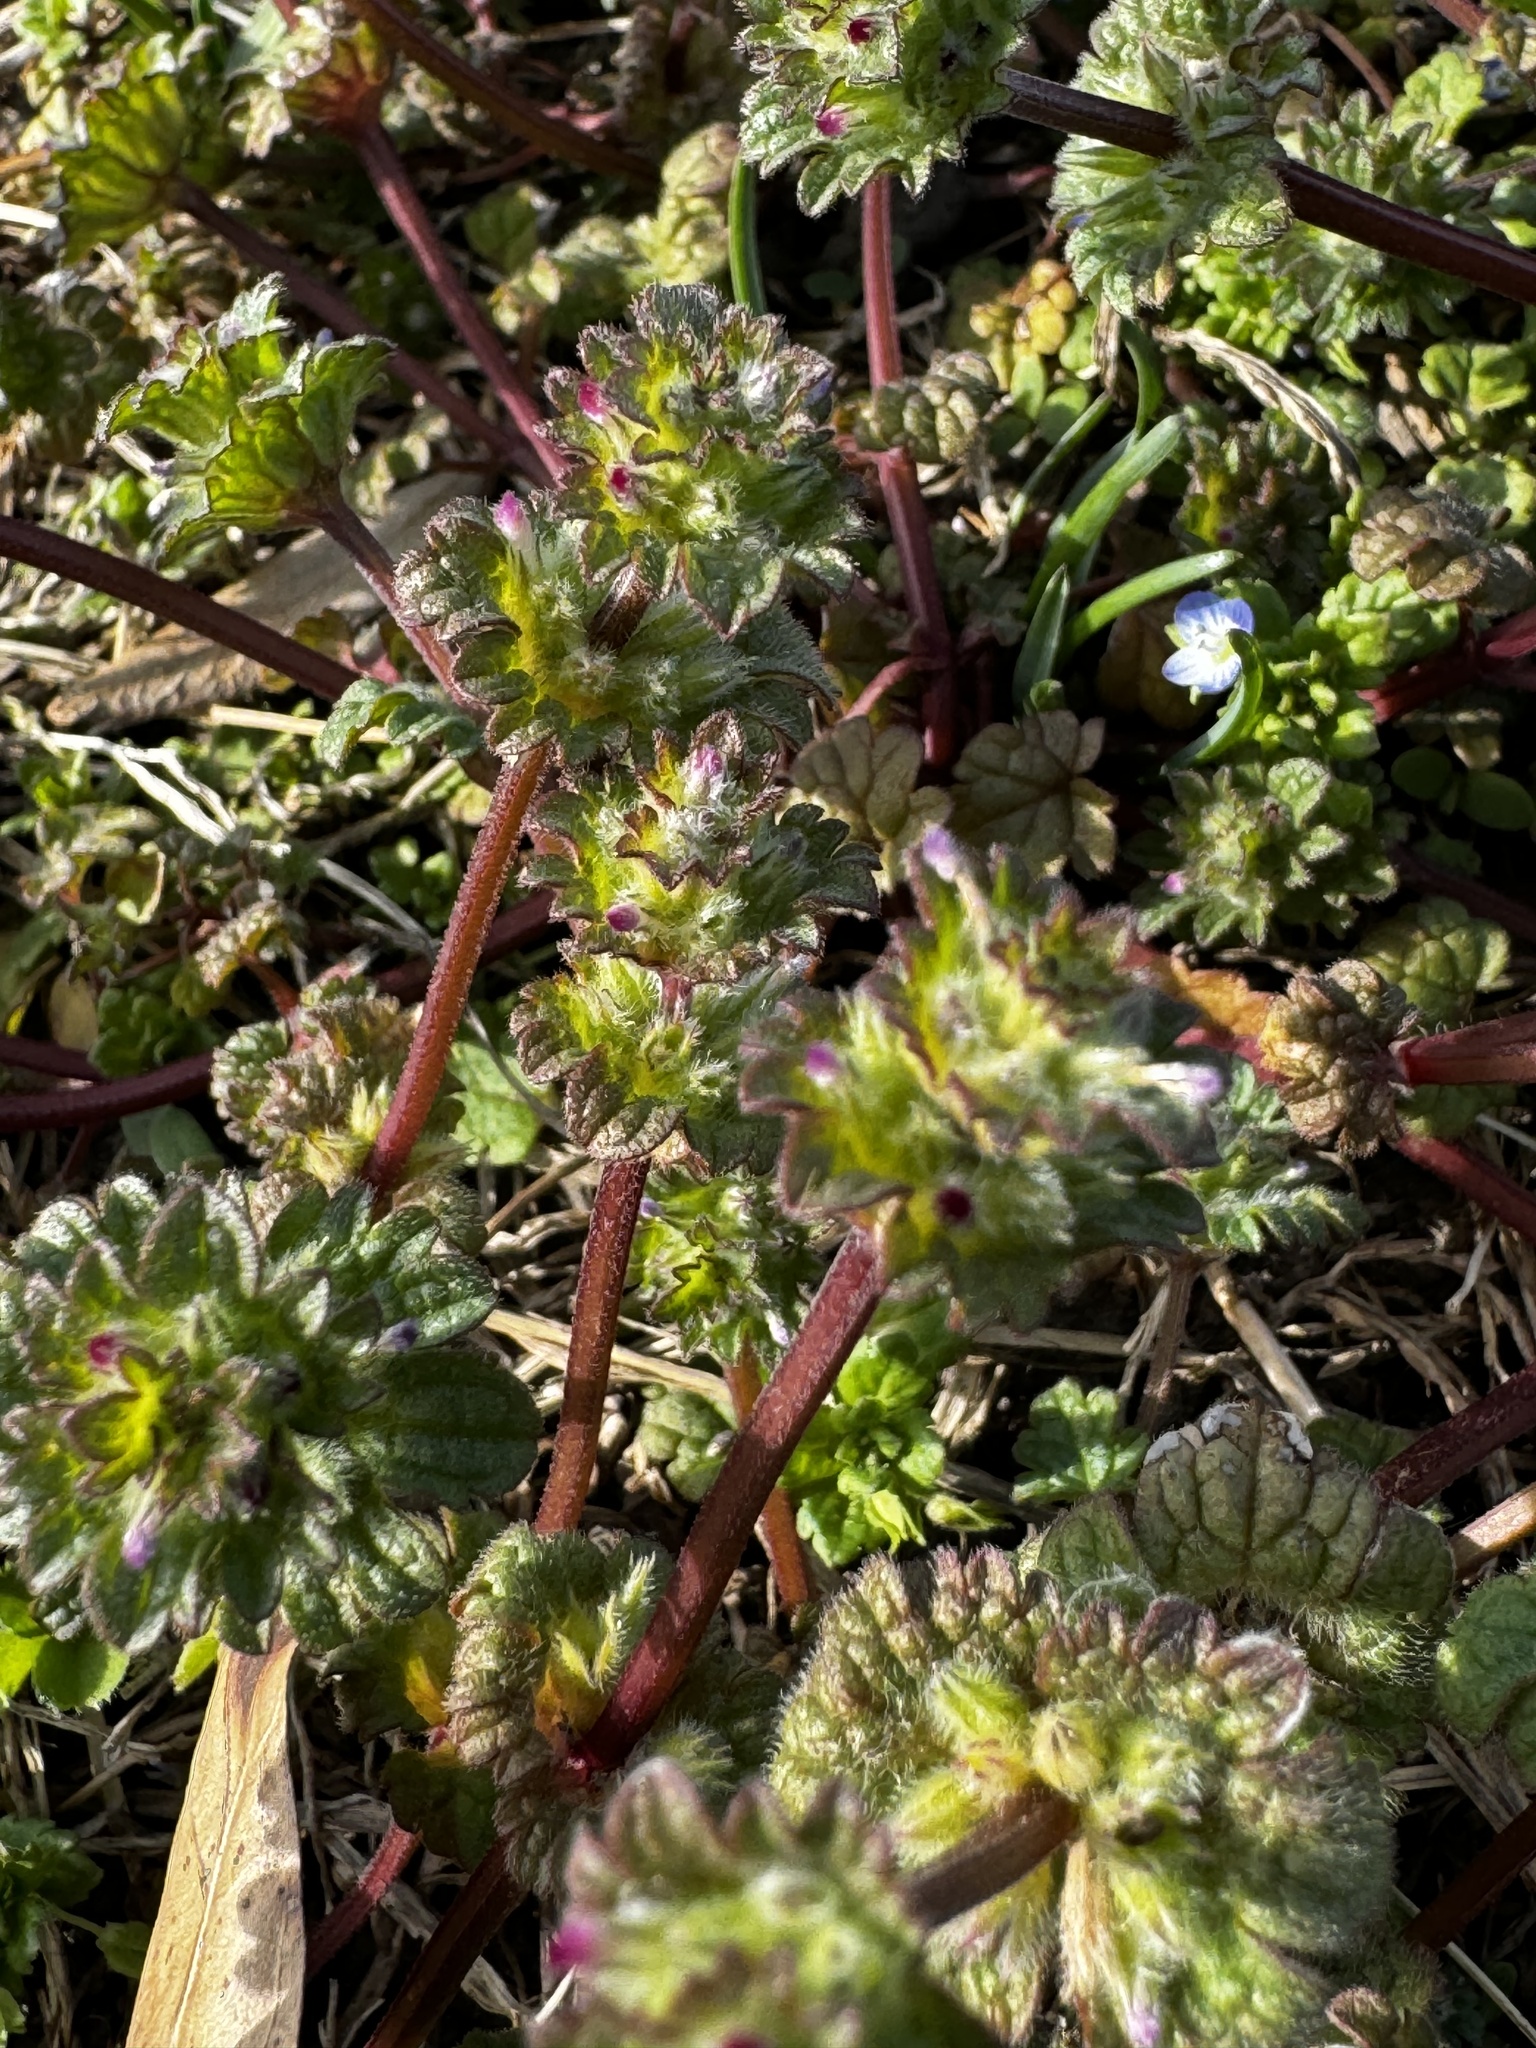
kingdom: Plantae
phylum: Tracheophyta
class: Magnoliopsida
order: Lamiales
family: Lamiaceae
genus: Lamium
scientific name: Lamium amplexicaule
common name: Henbit dead-nettle
